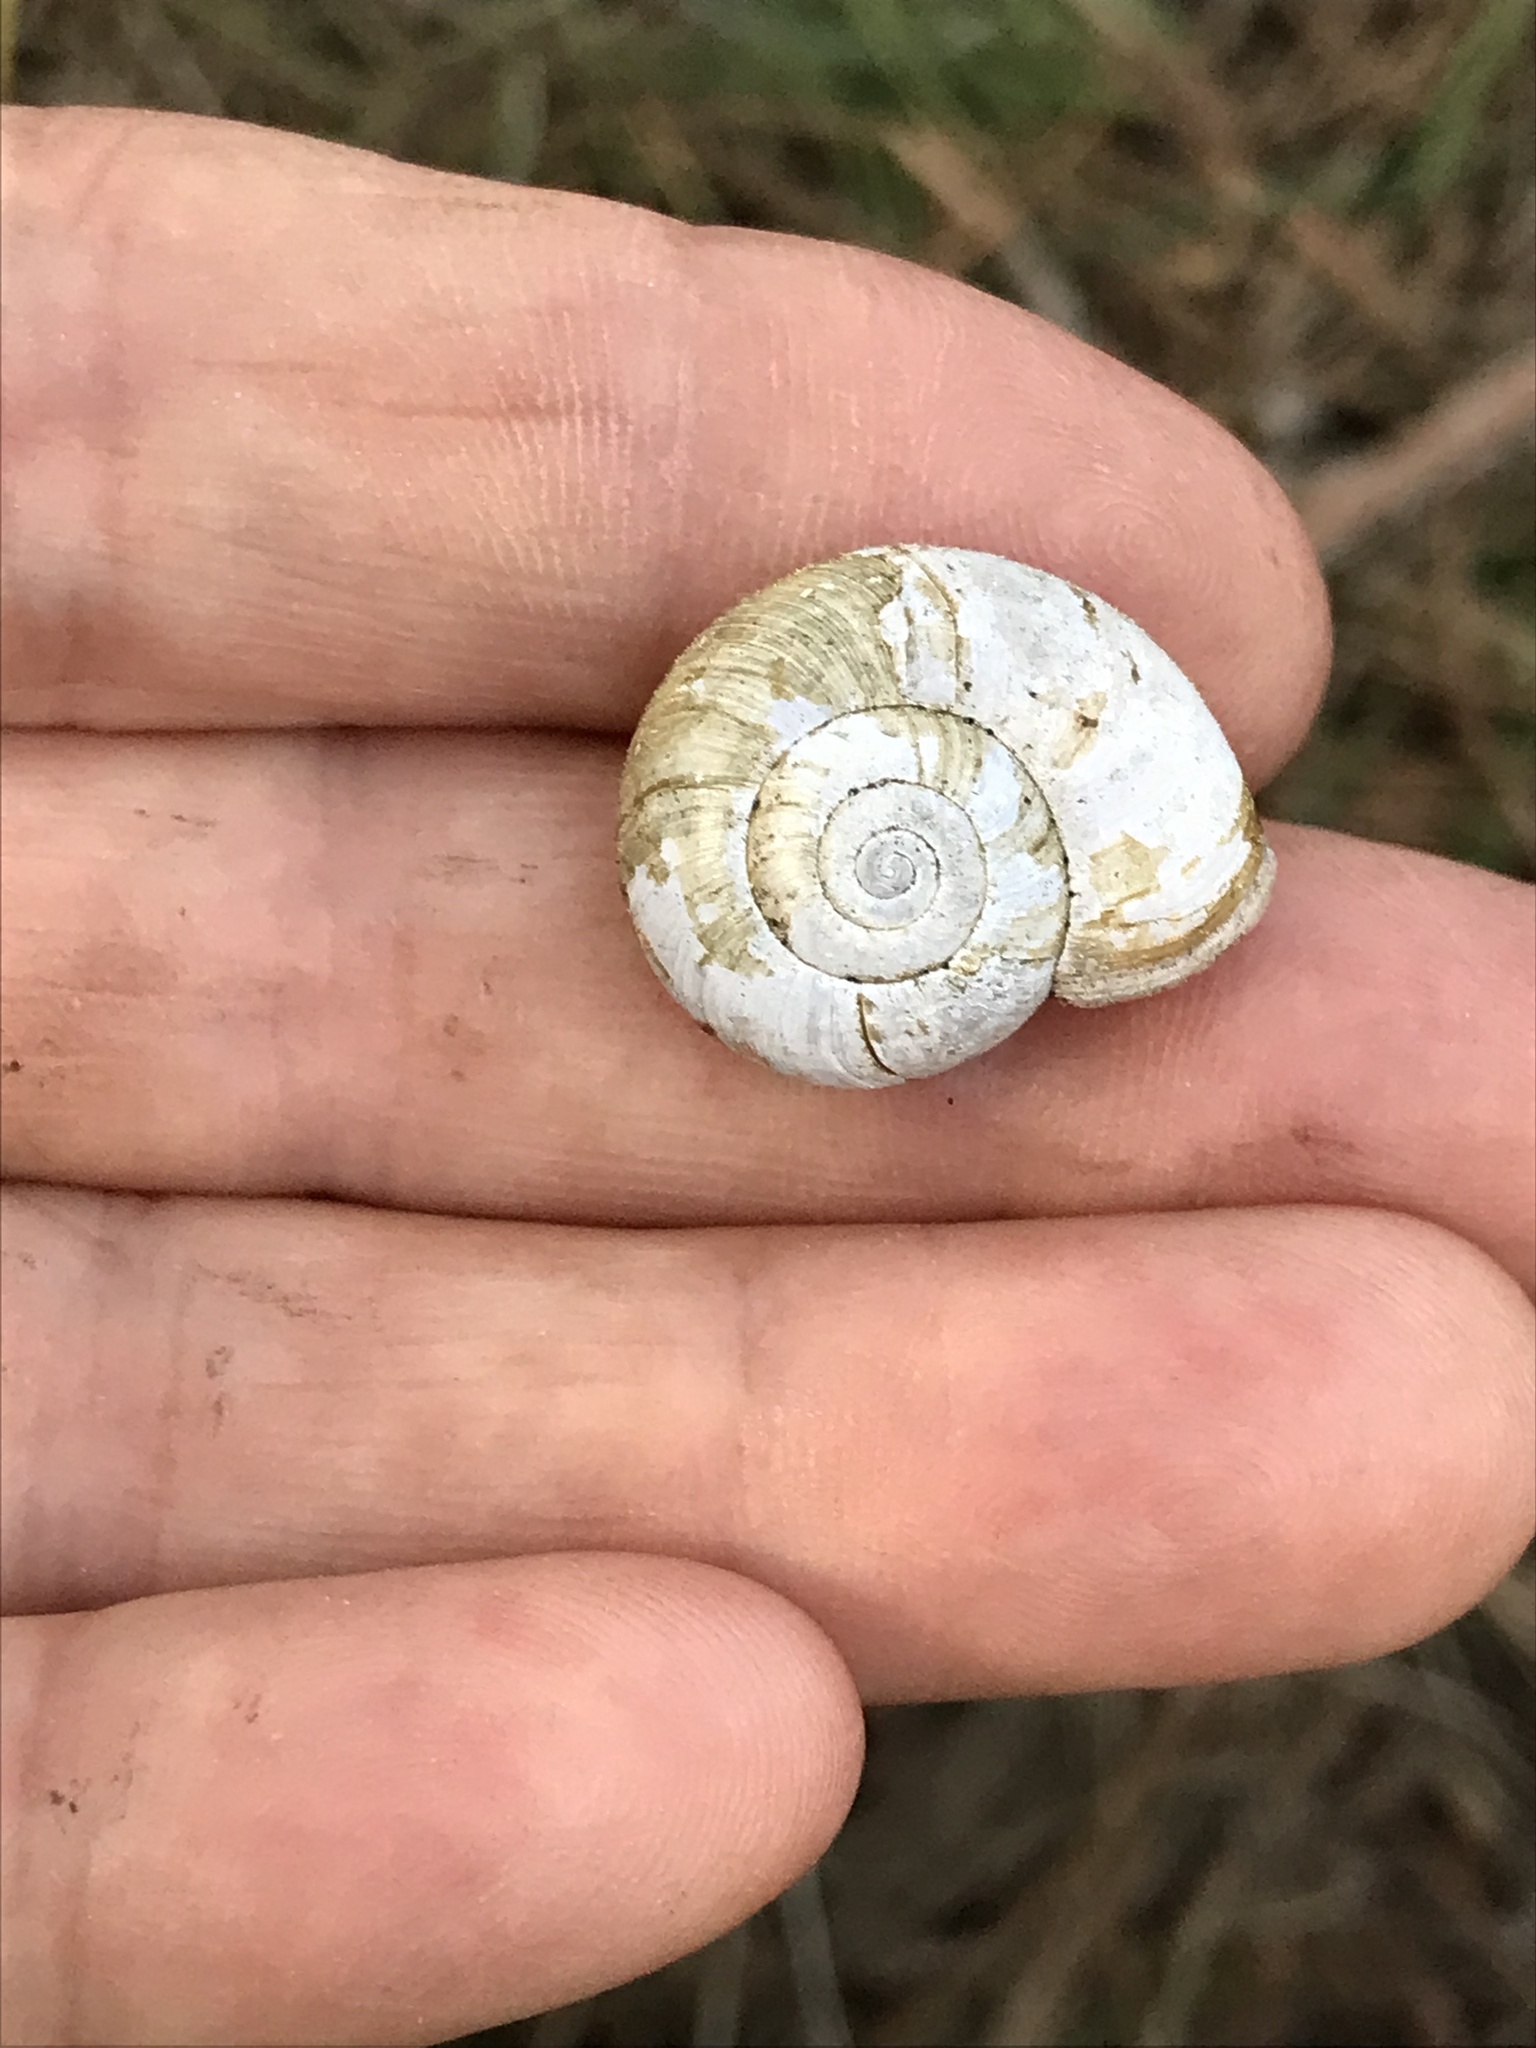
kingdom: Animalia
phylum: Mollusca
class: Gastropoda
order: Stylommatophora
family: Haplotrematidae
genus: Haplotrema
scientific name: Haplotrema minimum
